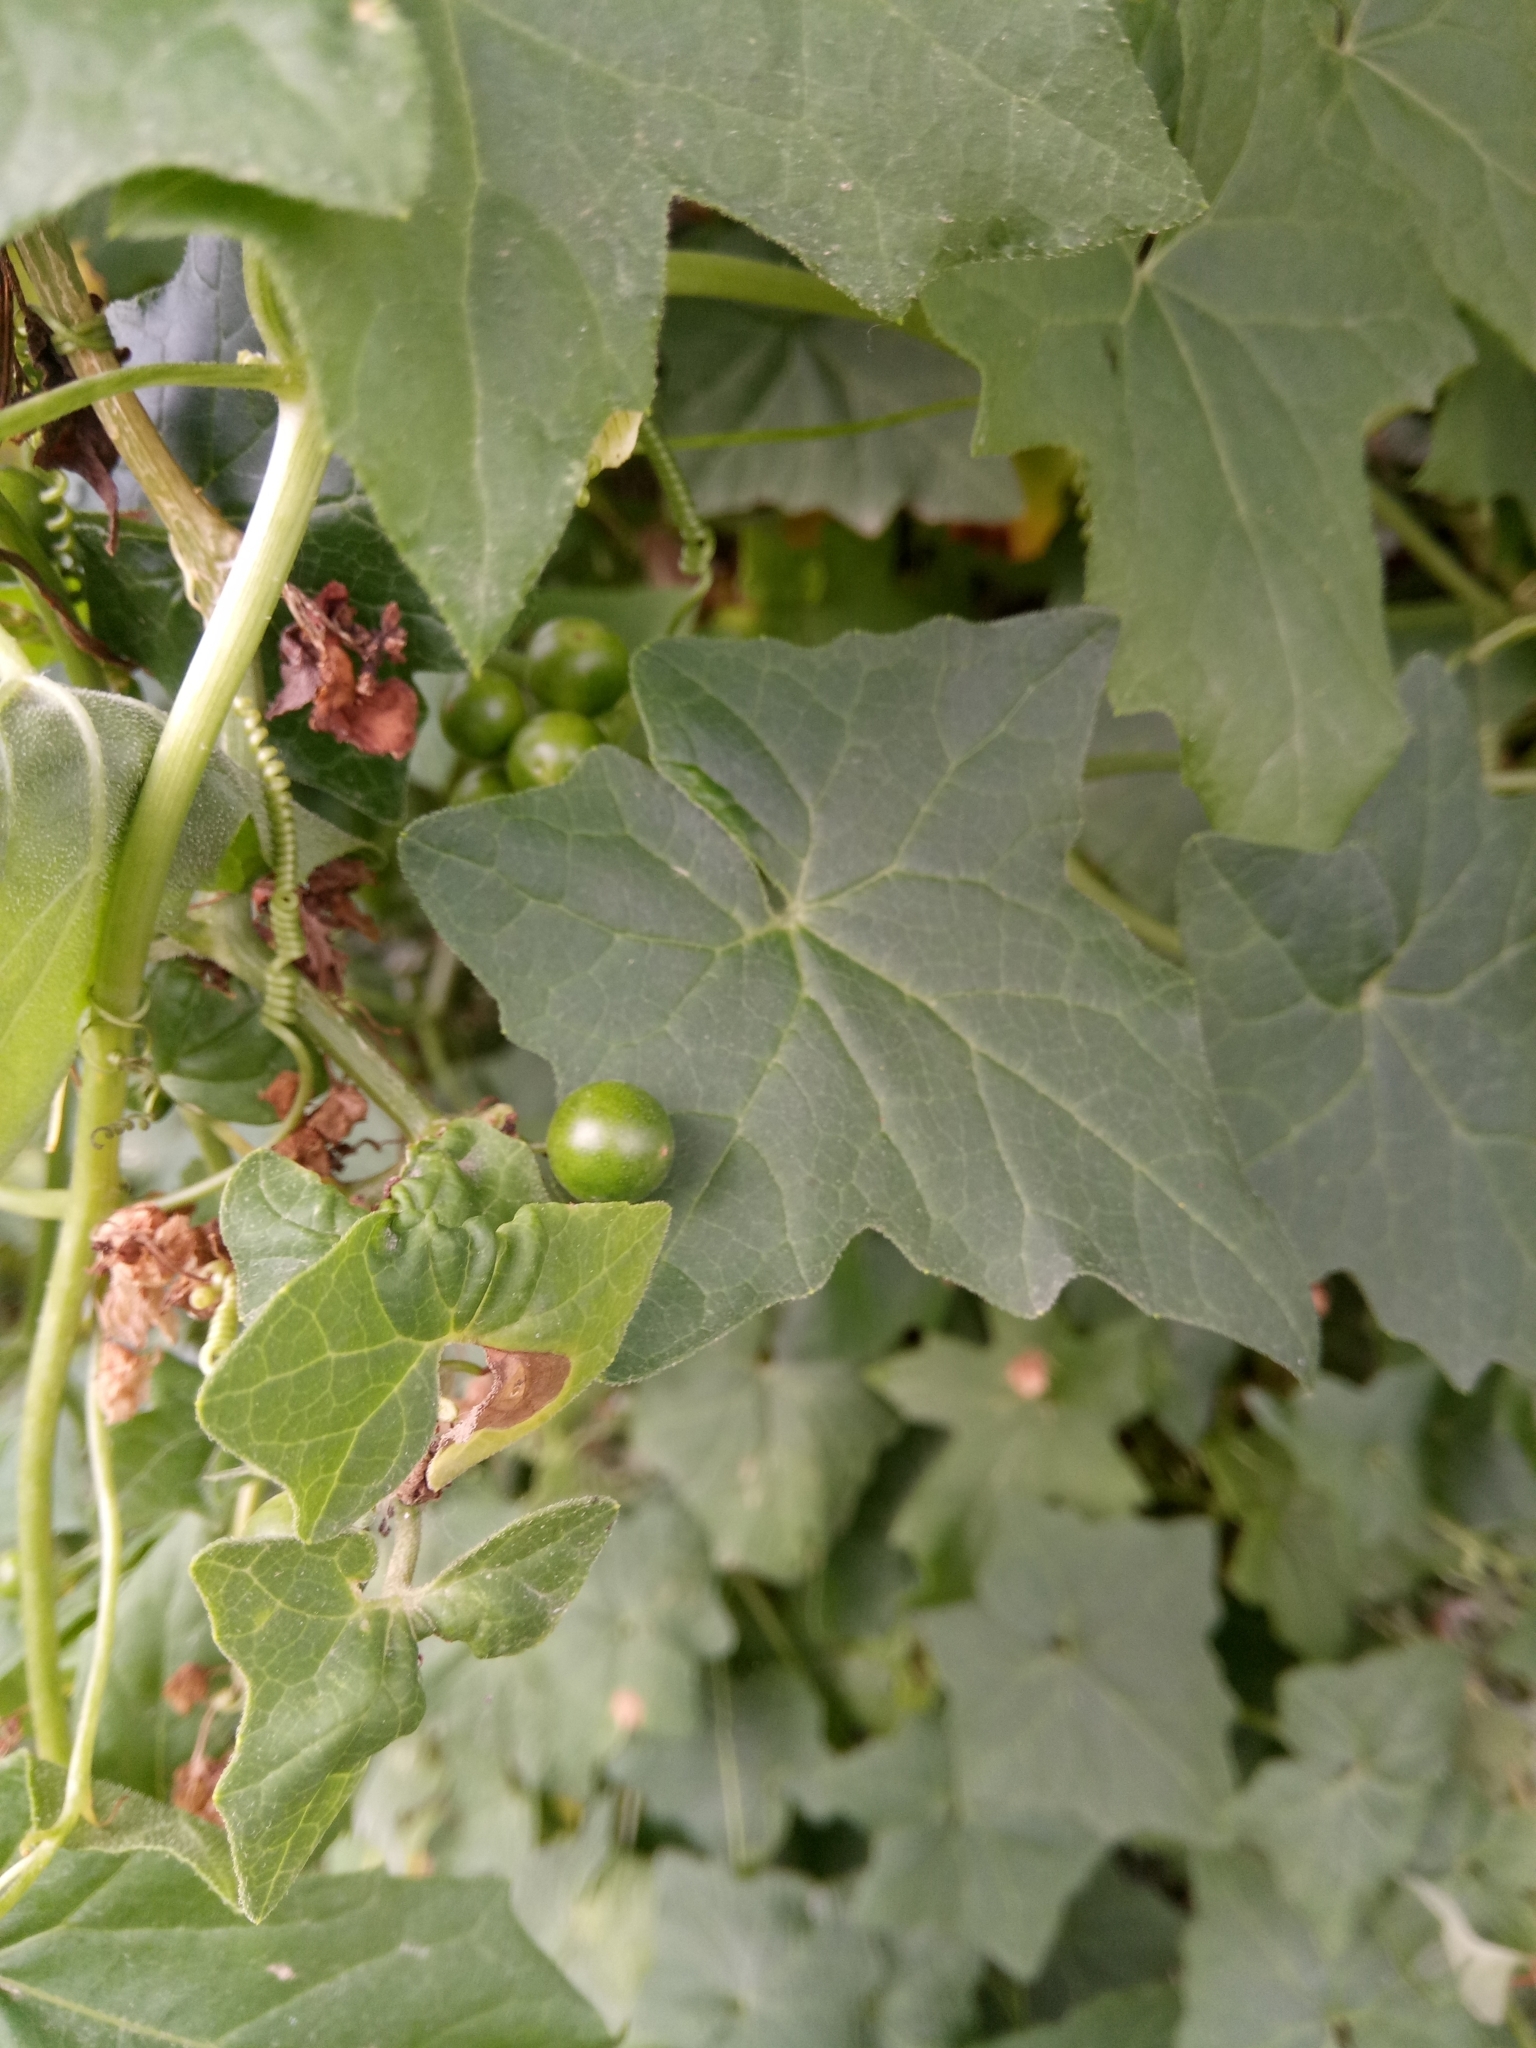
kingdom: Plantae
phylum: Tracheophyta
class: Magnoliopsida
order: Cucurbitales
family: Cucurbitaceae
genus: Bryonia
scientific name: Bryonia cretica
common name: Cretan bryony
